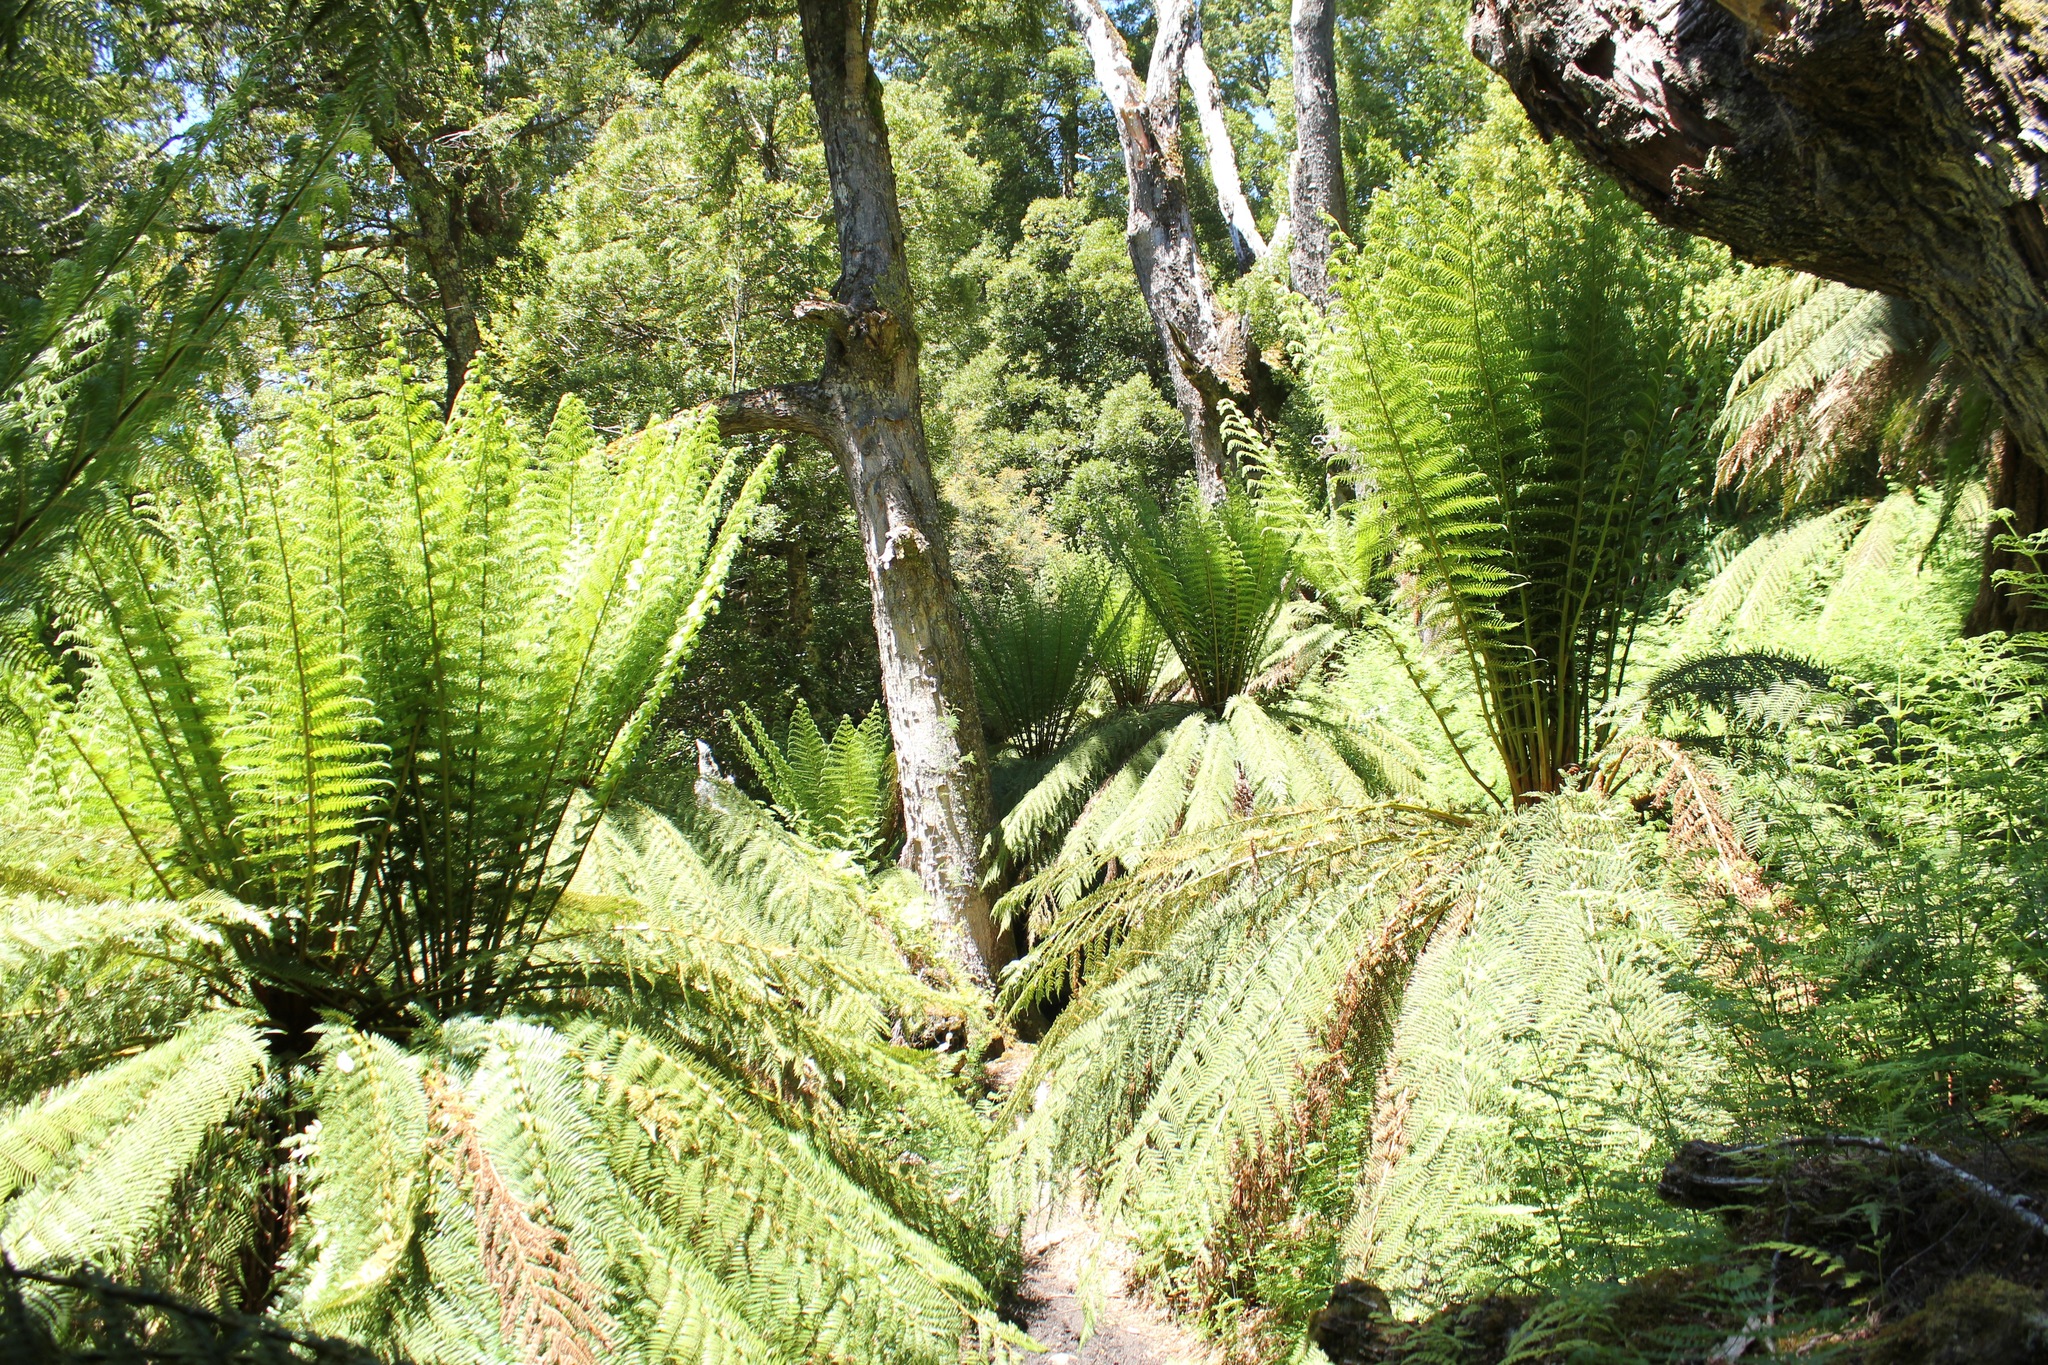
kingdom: Plantae
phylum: Tracheophyta
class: Polypodiopsida
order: Cyatheales
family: Dicksoniaceae
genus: Dicksonia
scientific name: Dicksonia antarctica
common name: Australian treefern
